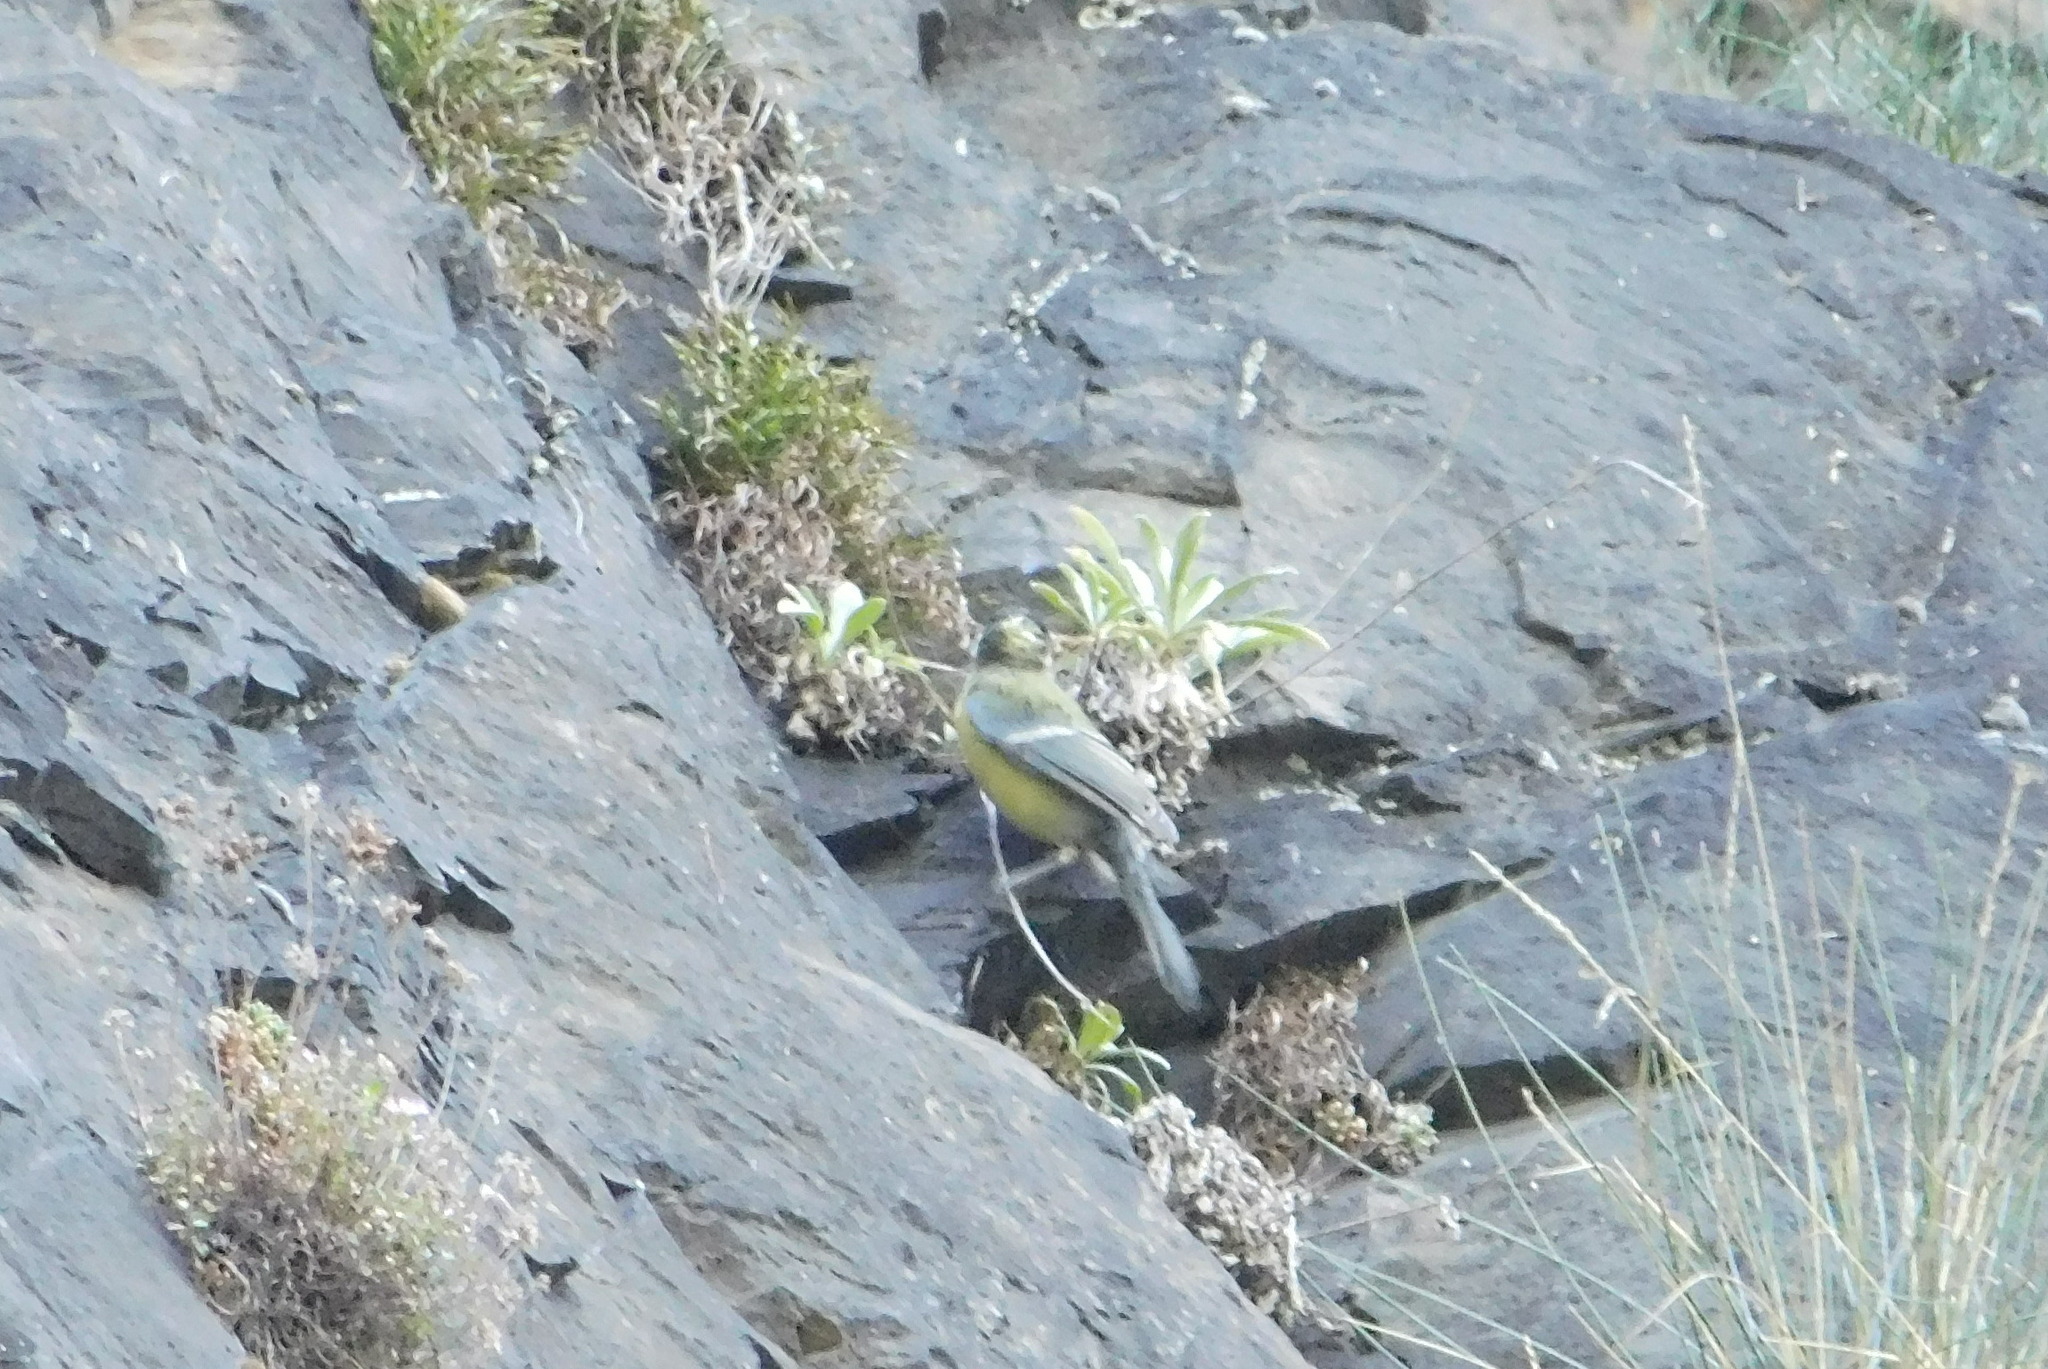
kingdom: Animalia
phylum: Chordata
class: Aves
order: Passeriformes
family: Paridae
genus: Parus
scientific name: Parus major
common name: Great tit
